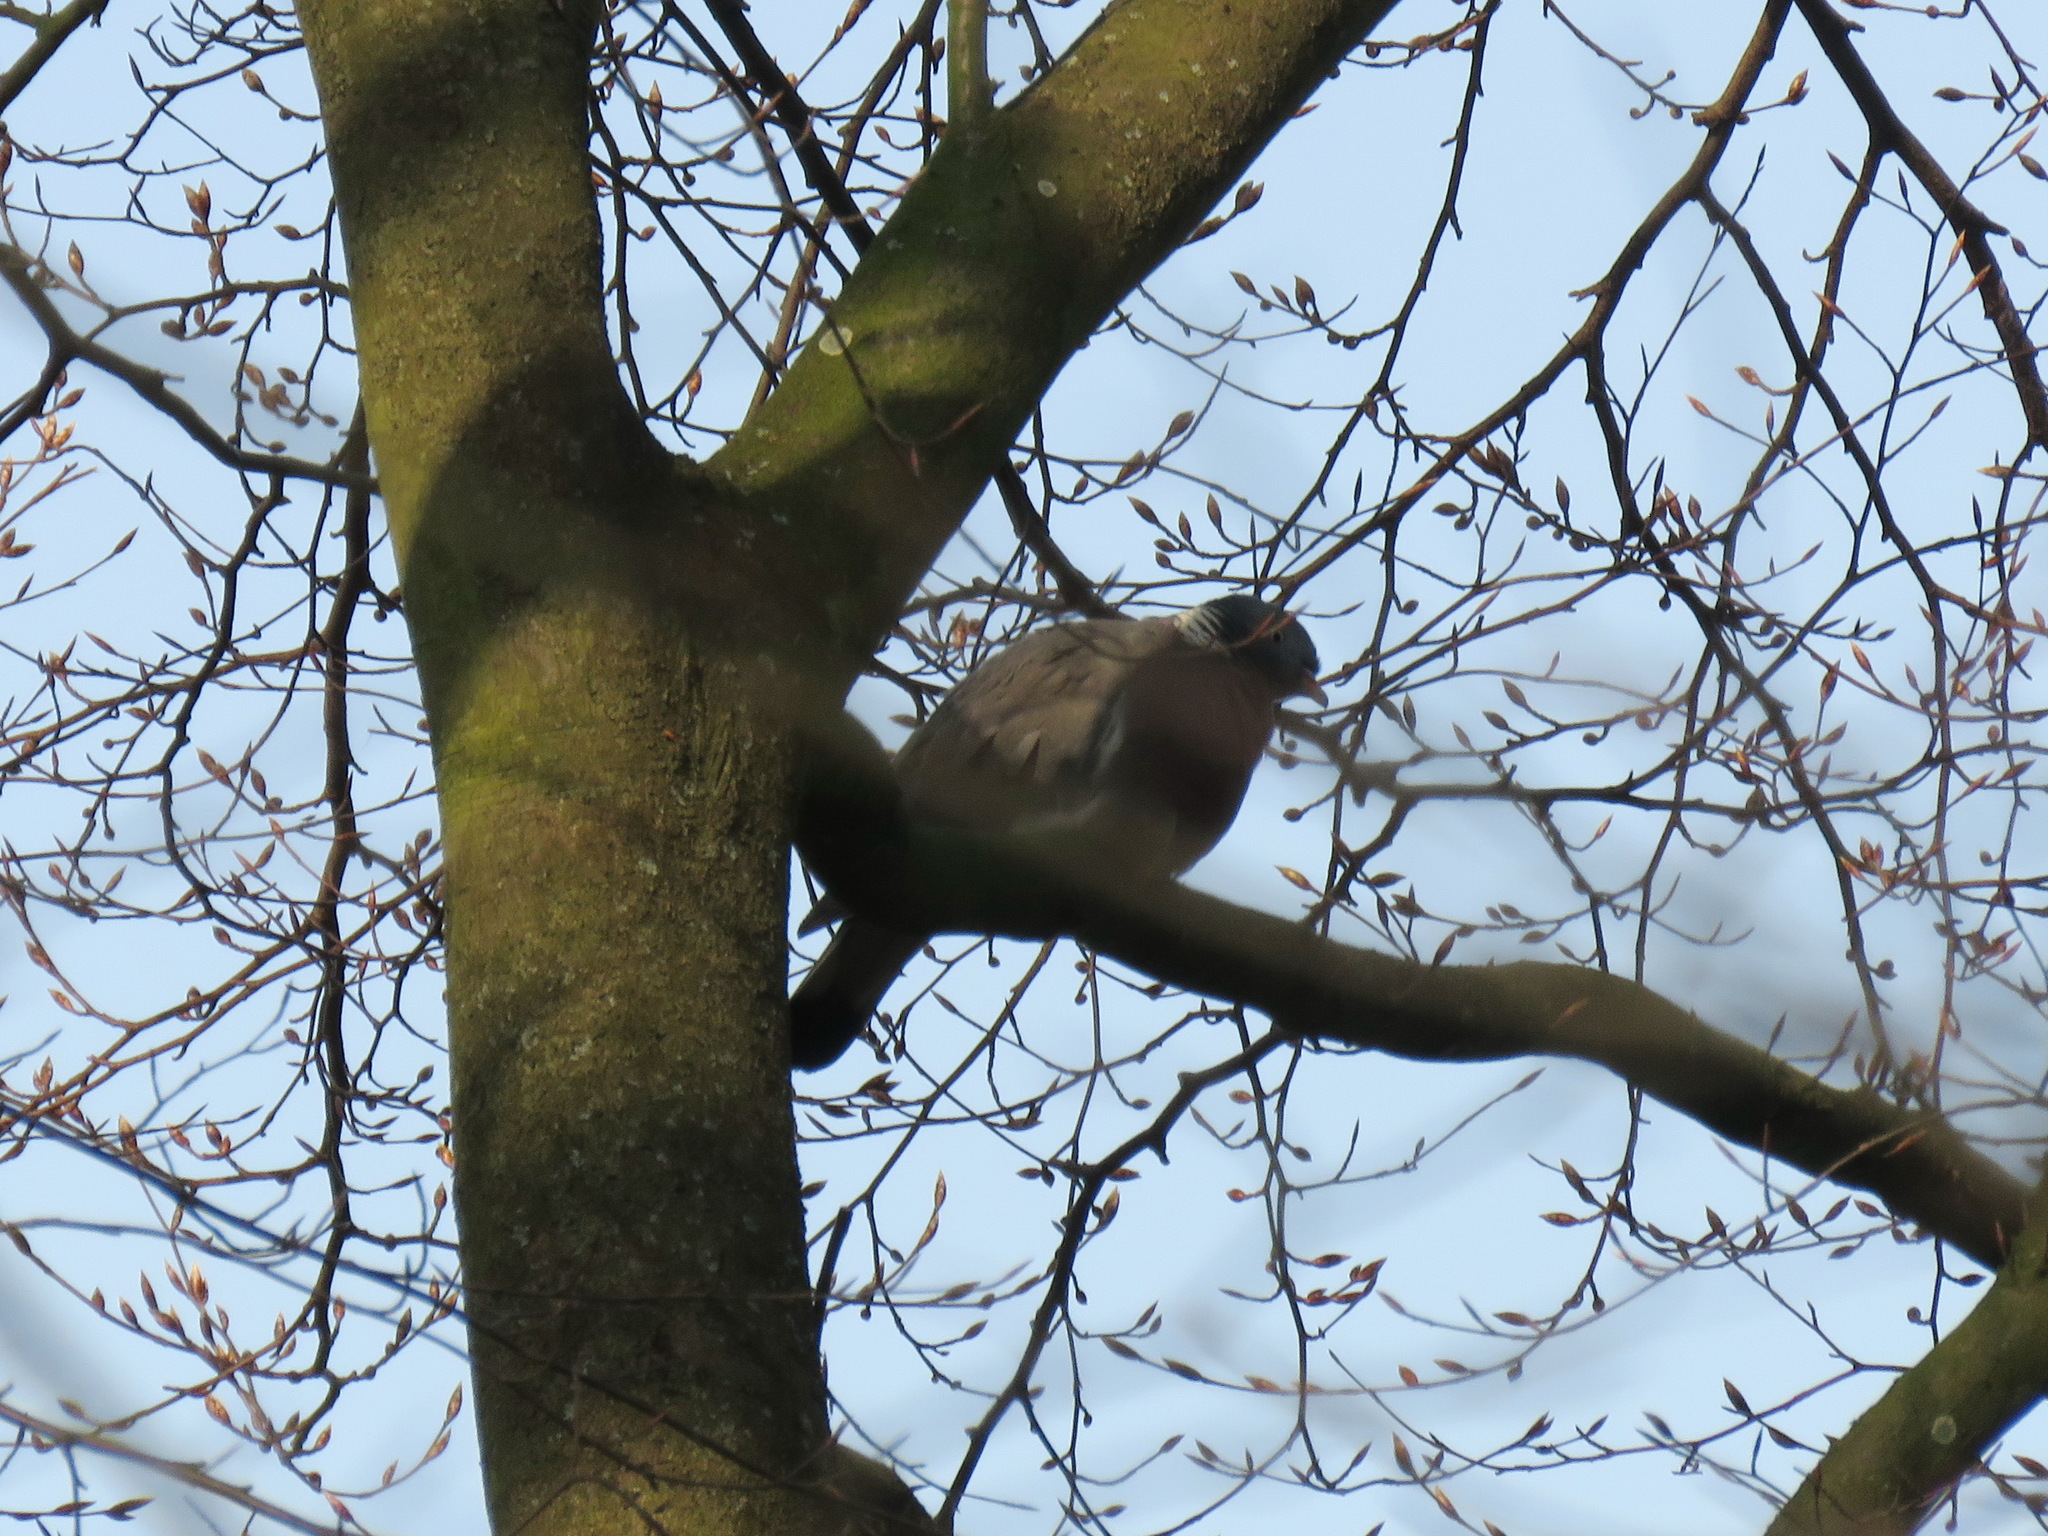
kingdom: Animalia
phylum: Chordata
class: Aves
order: Columbiformes
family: Columbidae
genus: Columba
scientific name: Columba palumbus
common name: Common wood pigeon
